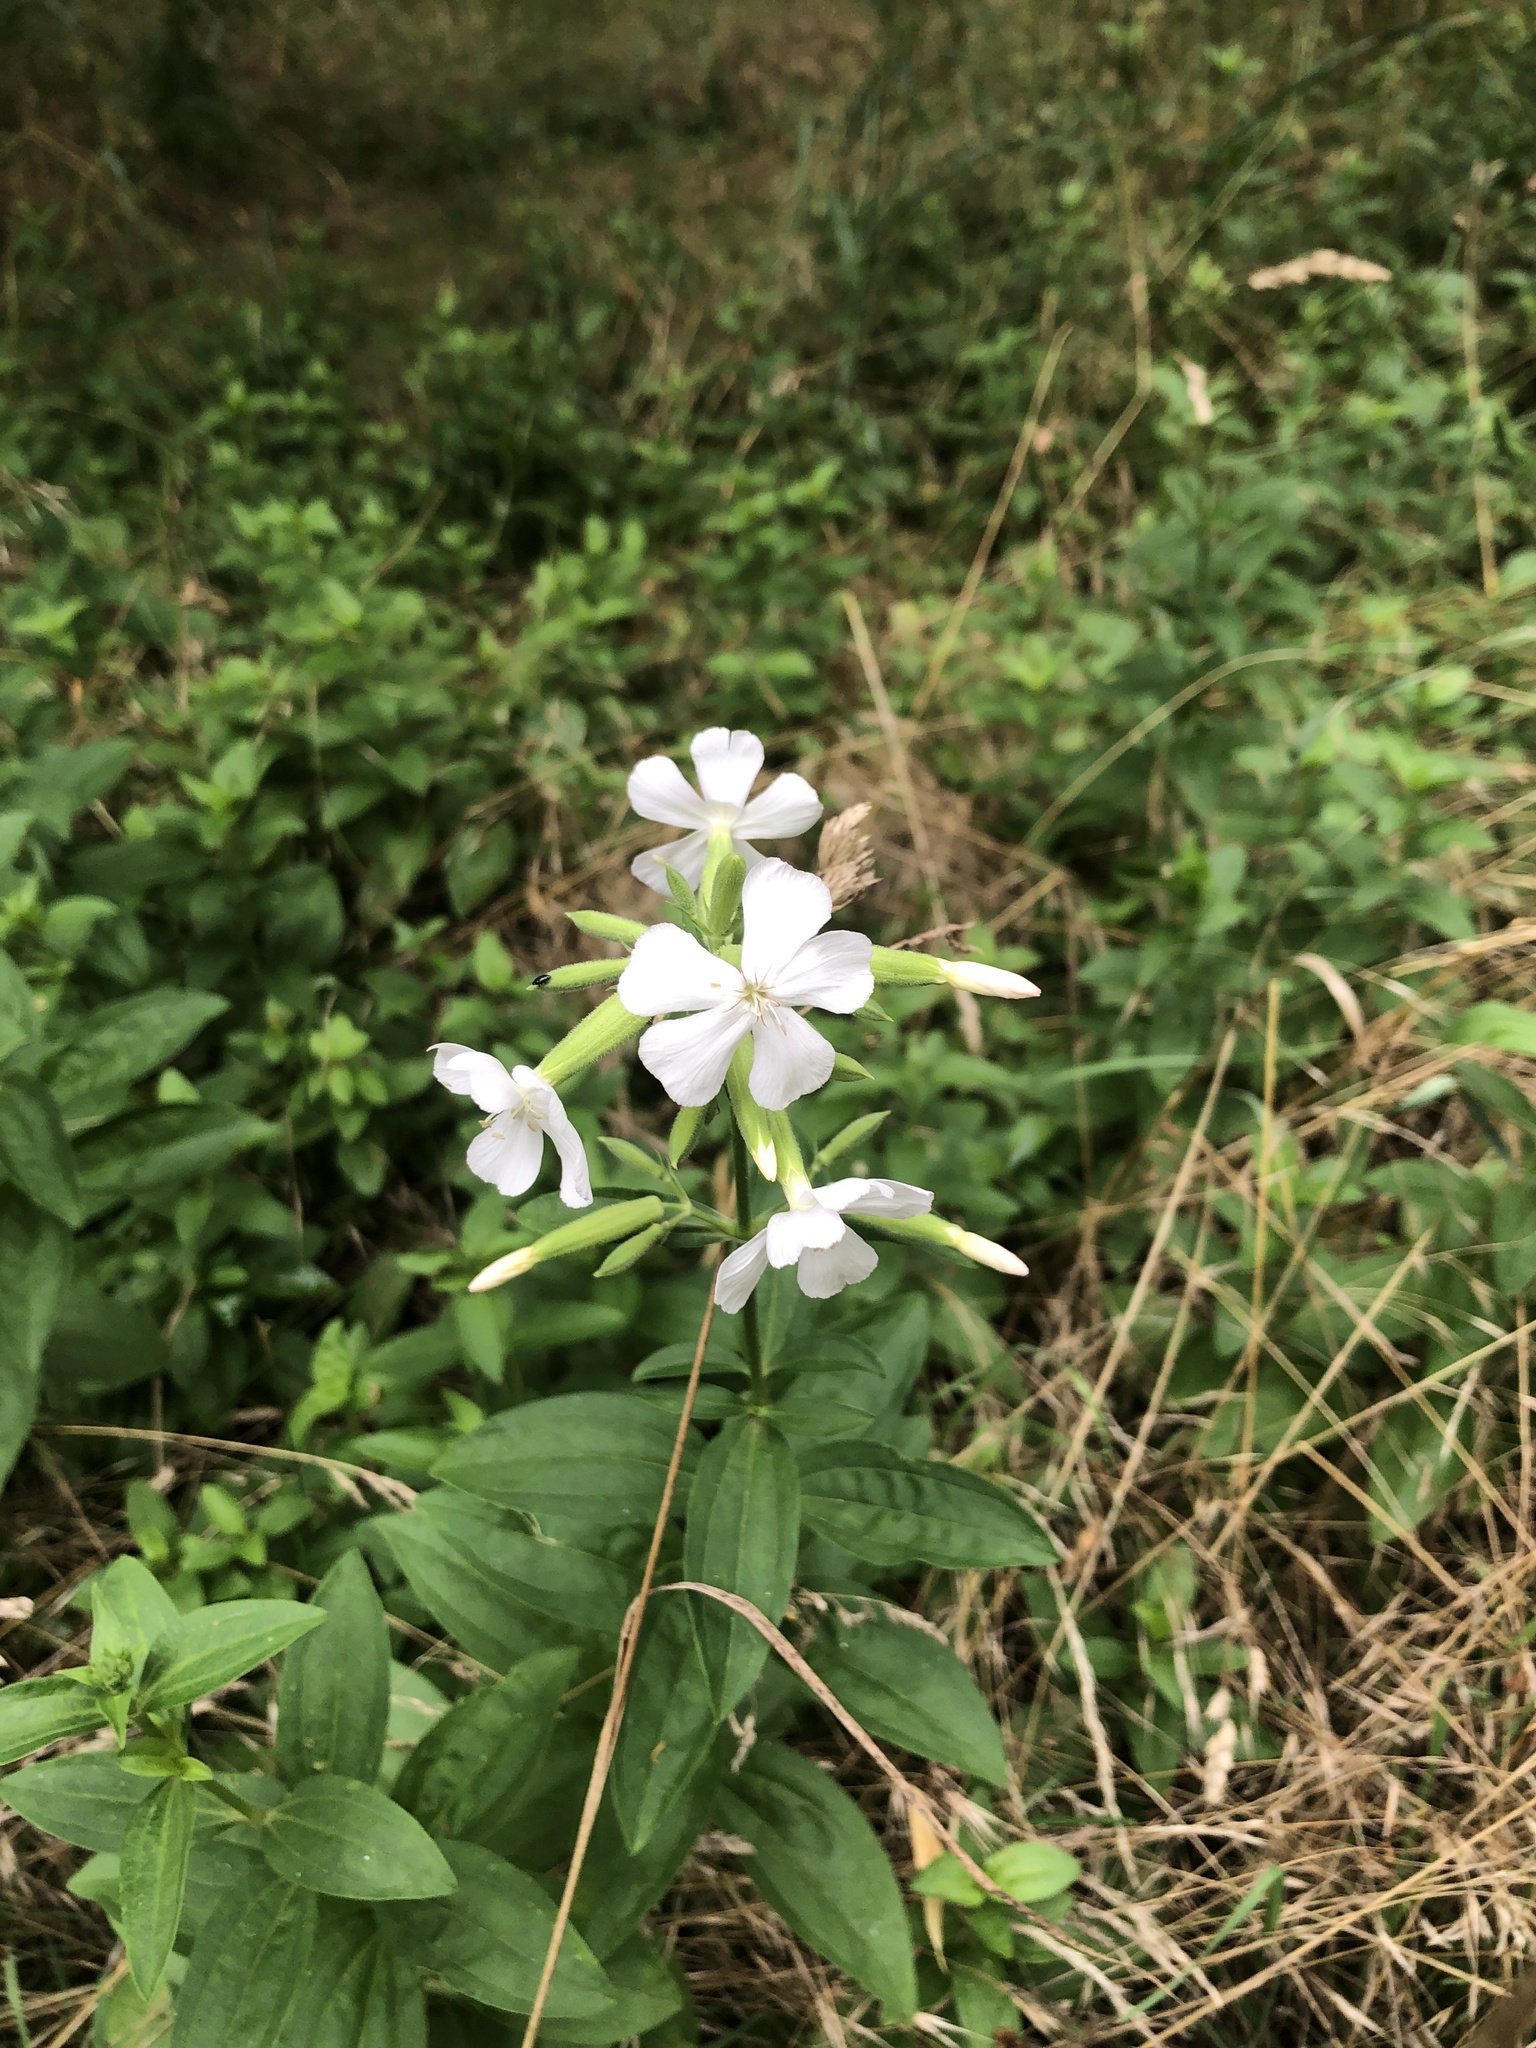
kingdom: Plantae
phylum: Tracheophyta
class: Magnoliopsida
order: Caryophyllales
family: Caryophyllaceae
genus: Saponaria
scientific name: Saponaria officinalis
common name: Soapwort
